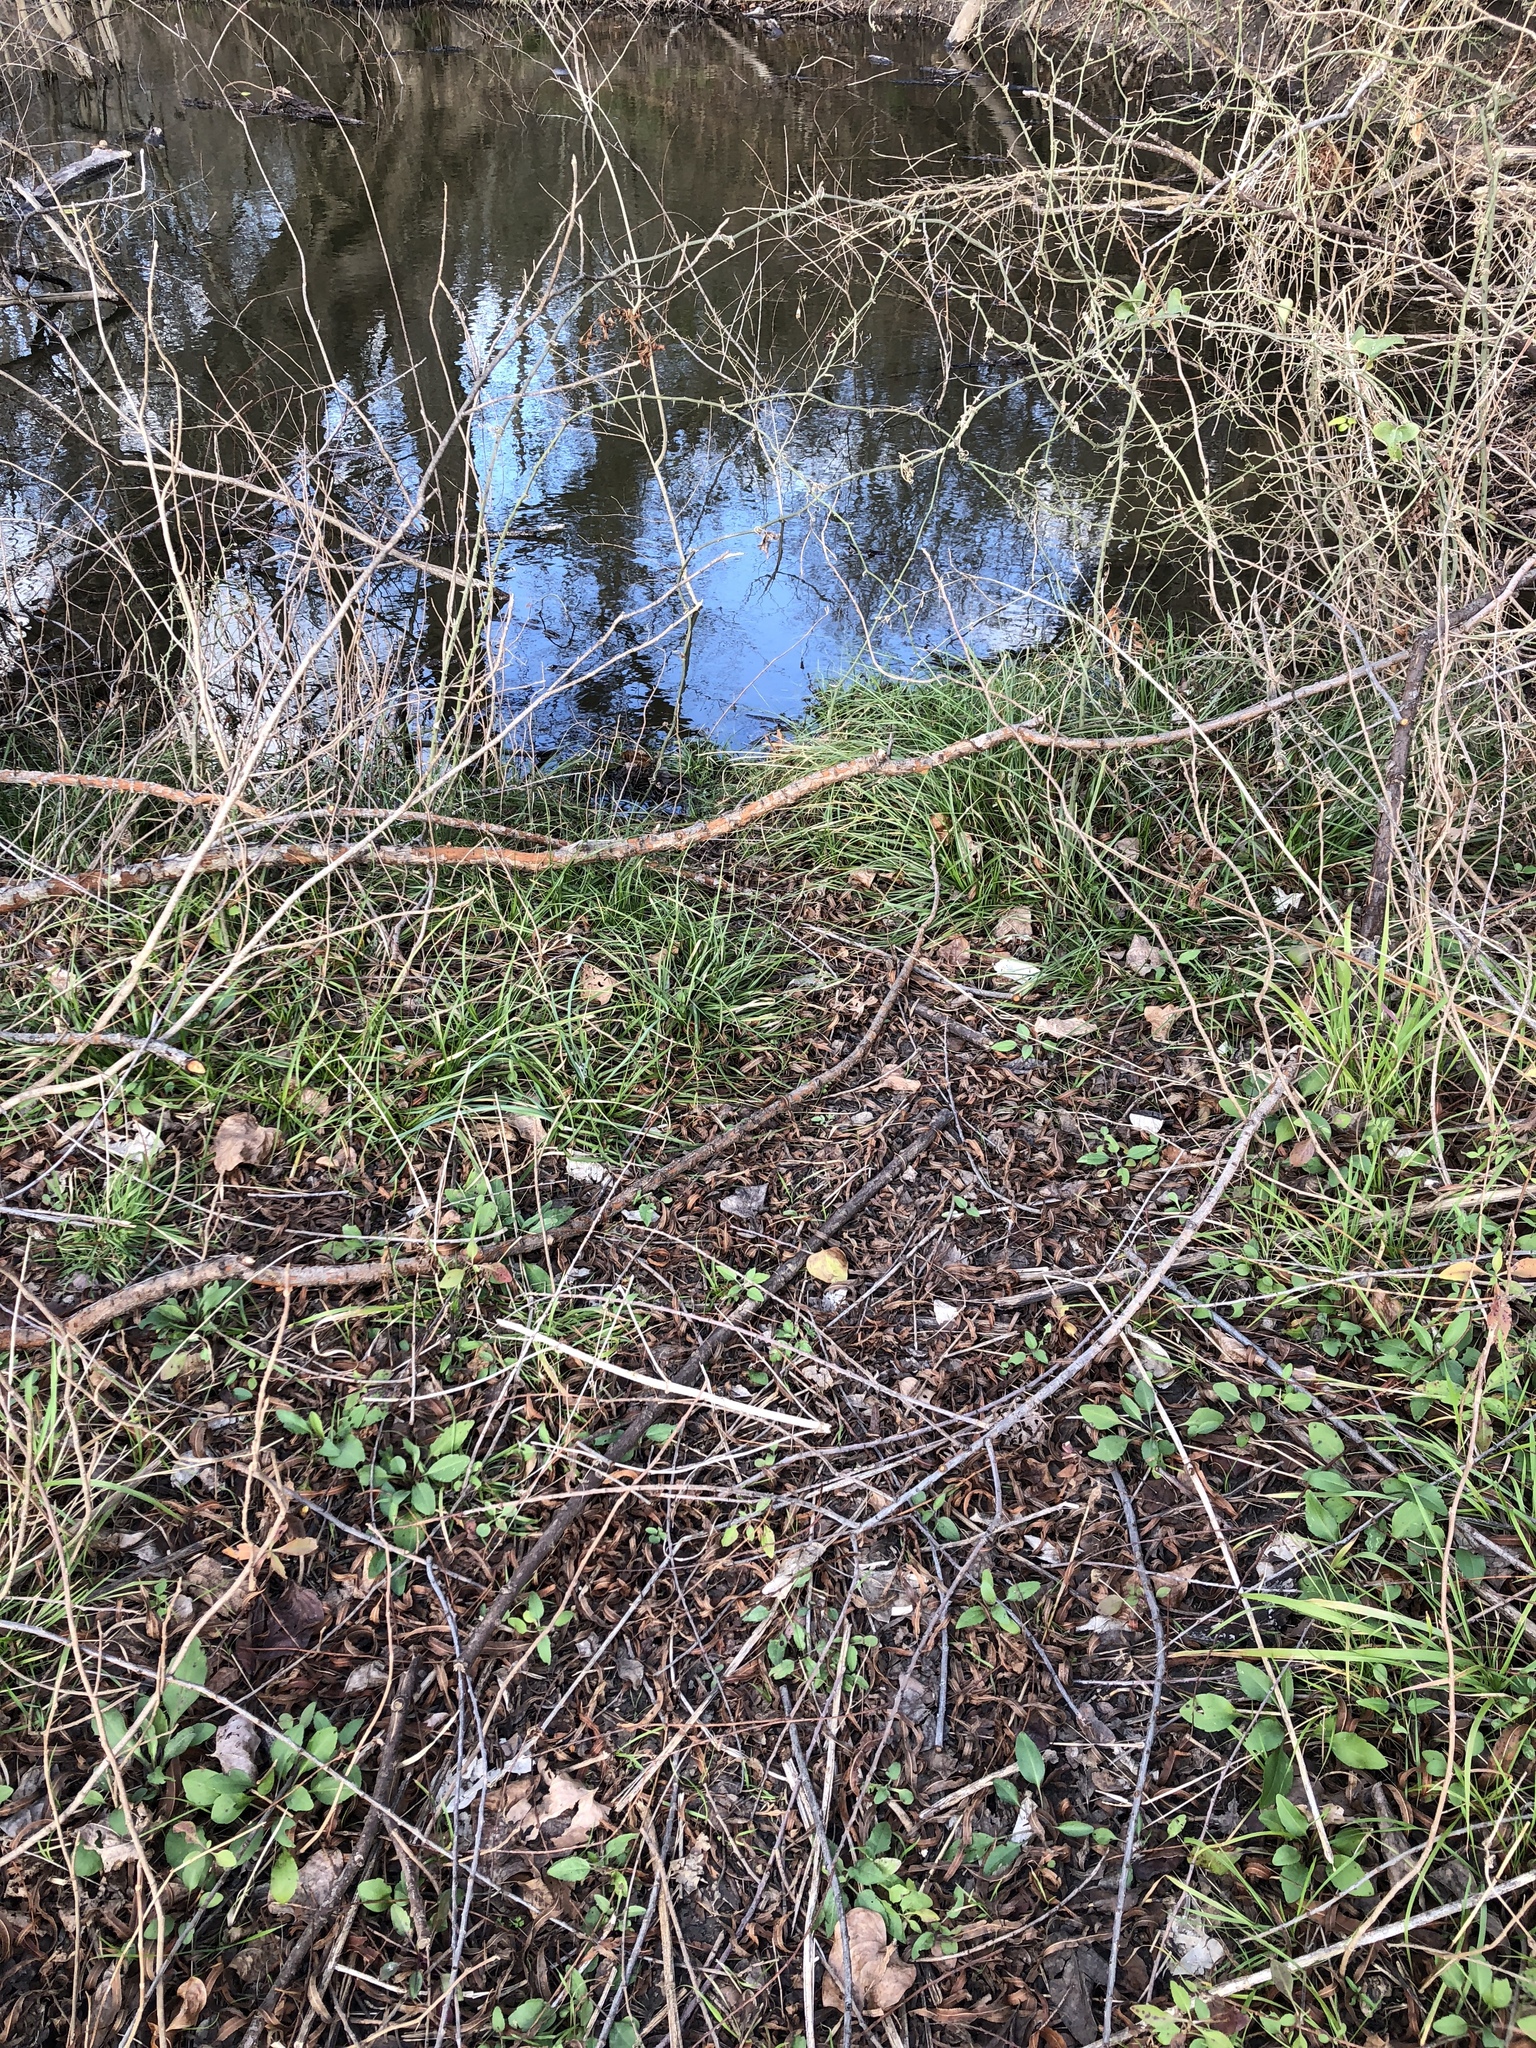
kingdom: Animalia
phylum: Chordata
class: Mammalia
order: Rodentia
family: Castoridae
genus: Castor
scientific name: Castor canadensis
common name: American beaver
